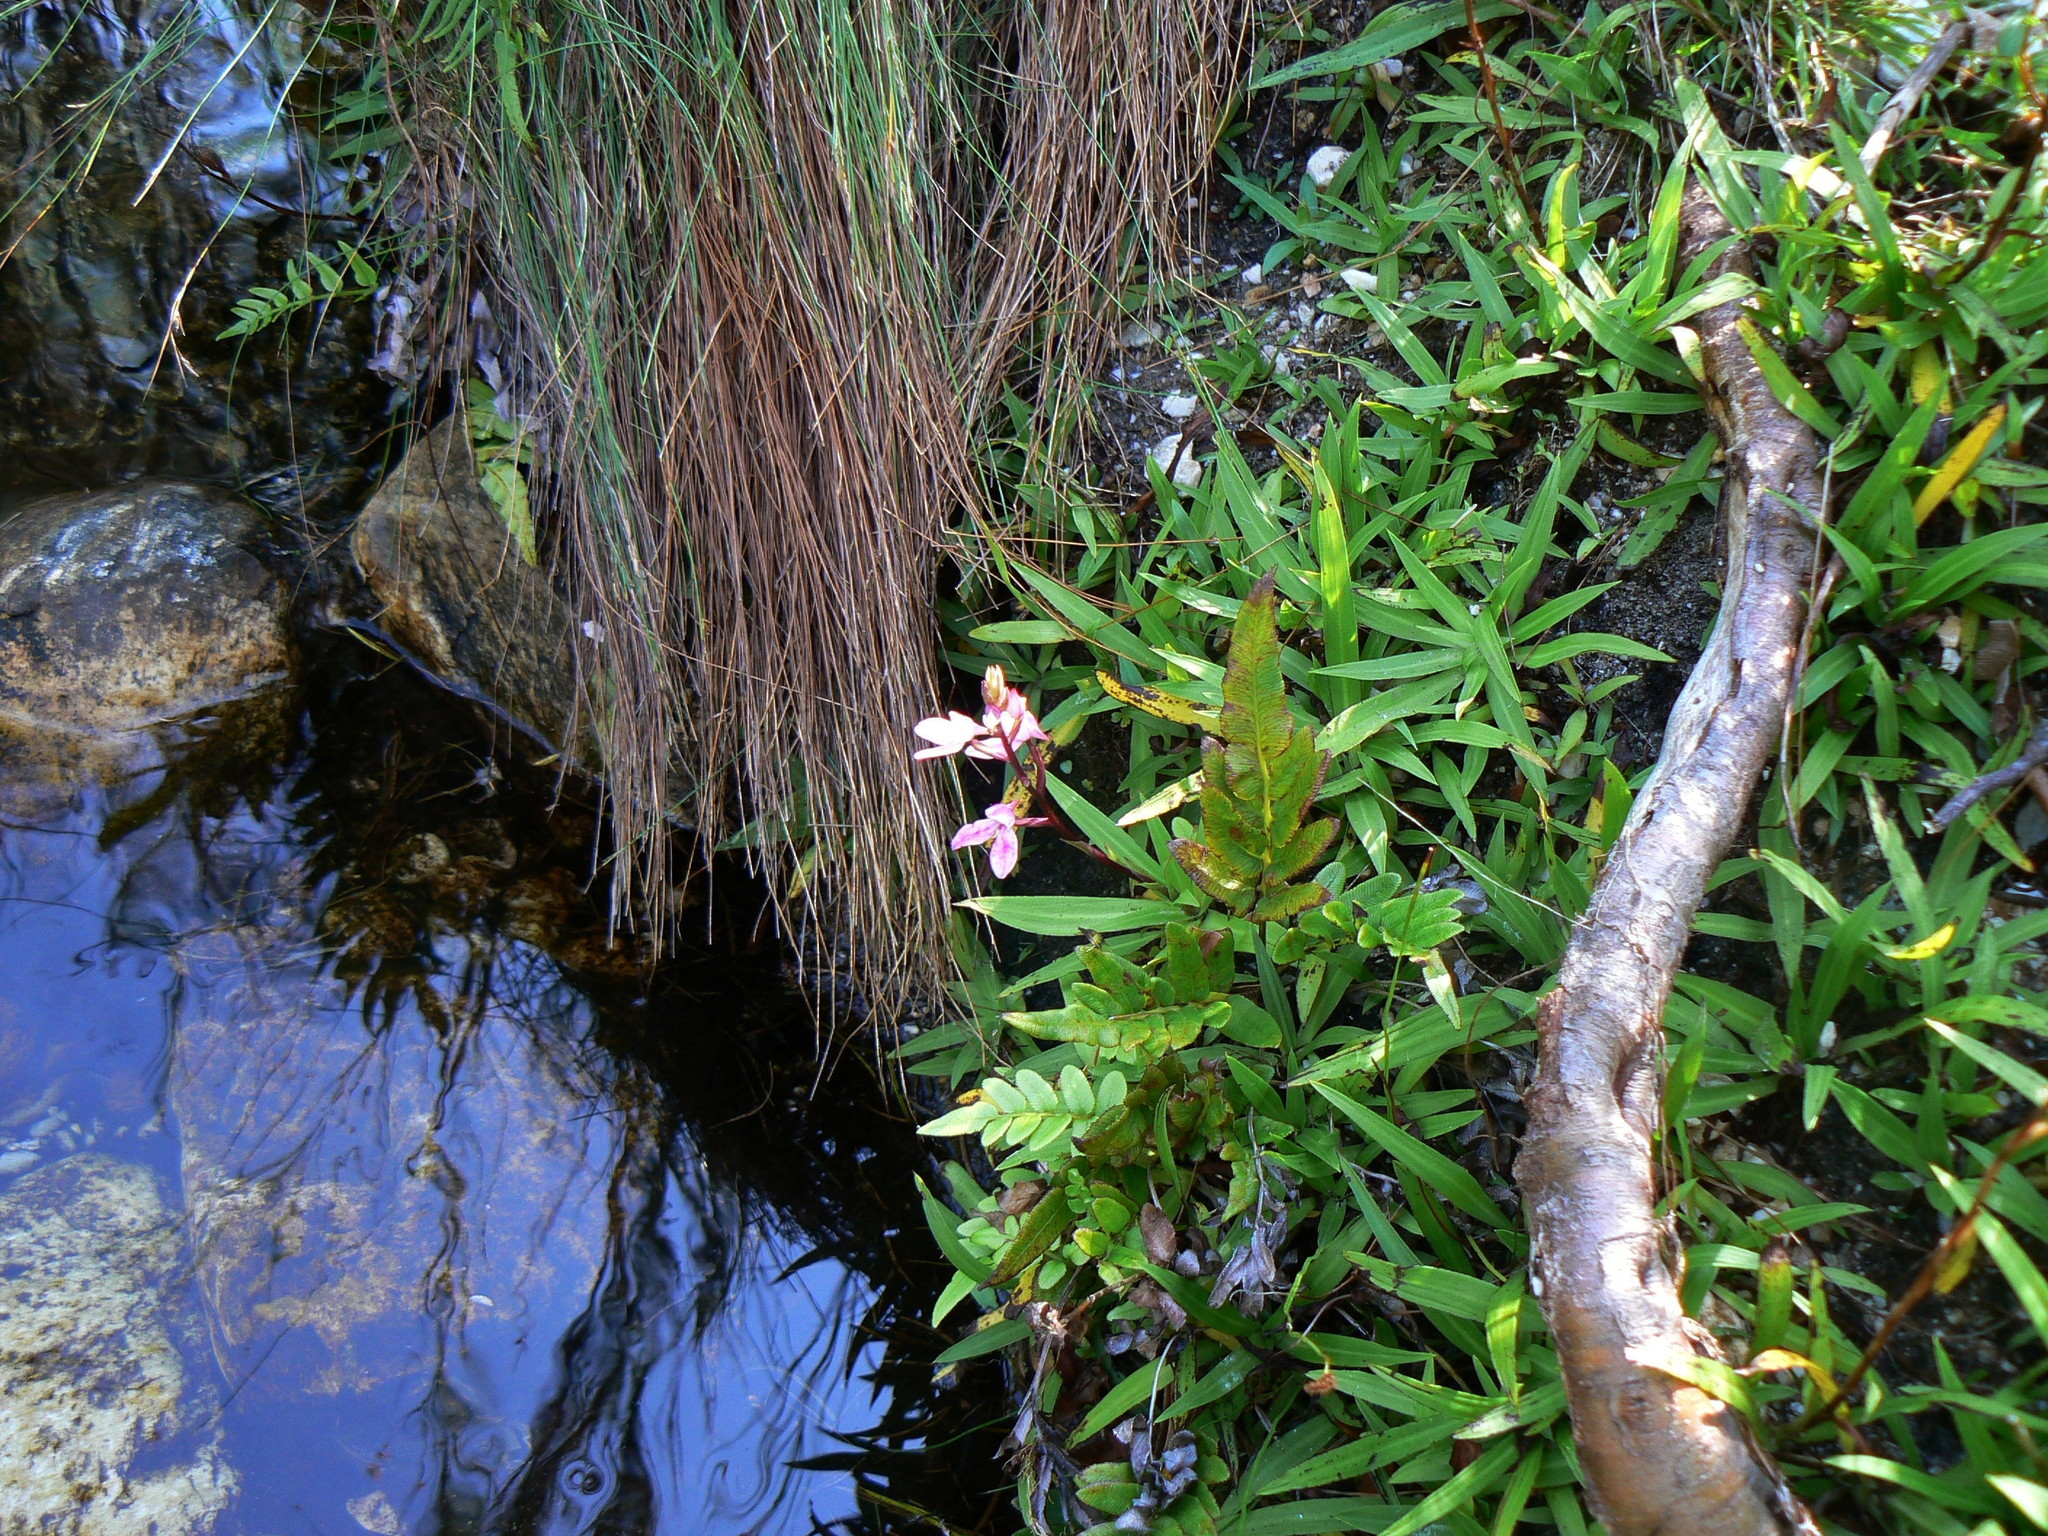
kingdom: Plantae
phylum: Tracheophyta
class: Liliopsida
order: Asparagales
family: Orchidaceae
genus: Disa
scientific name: Disa tripetaloides
